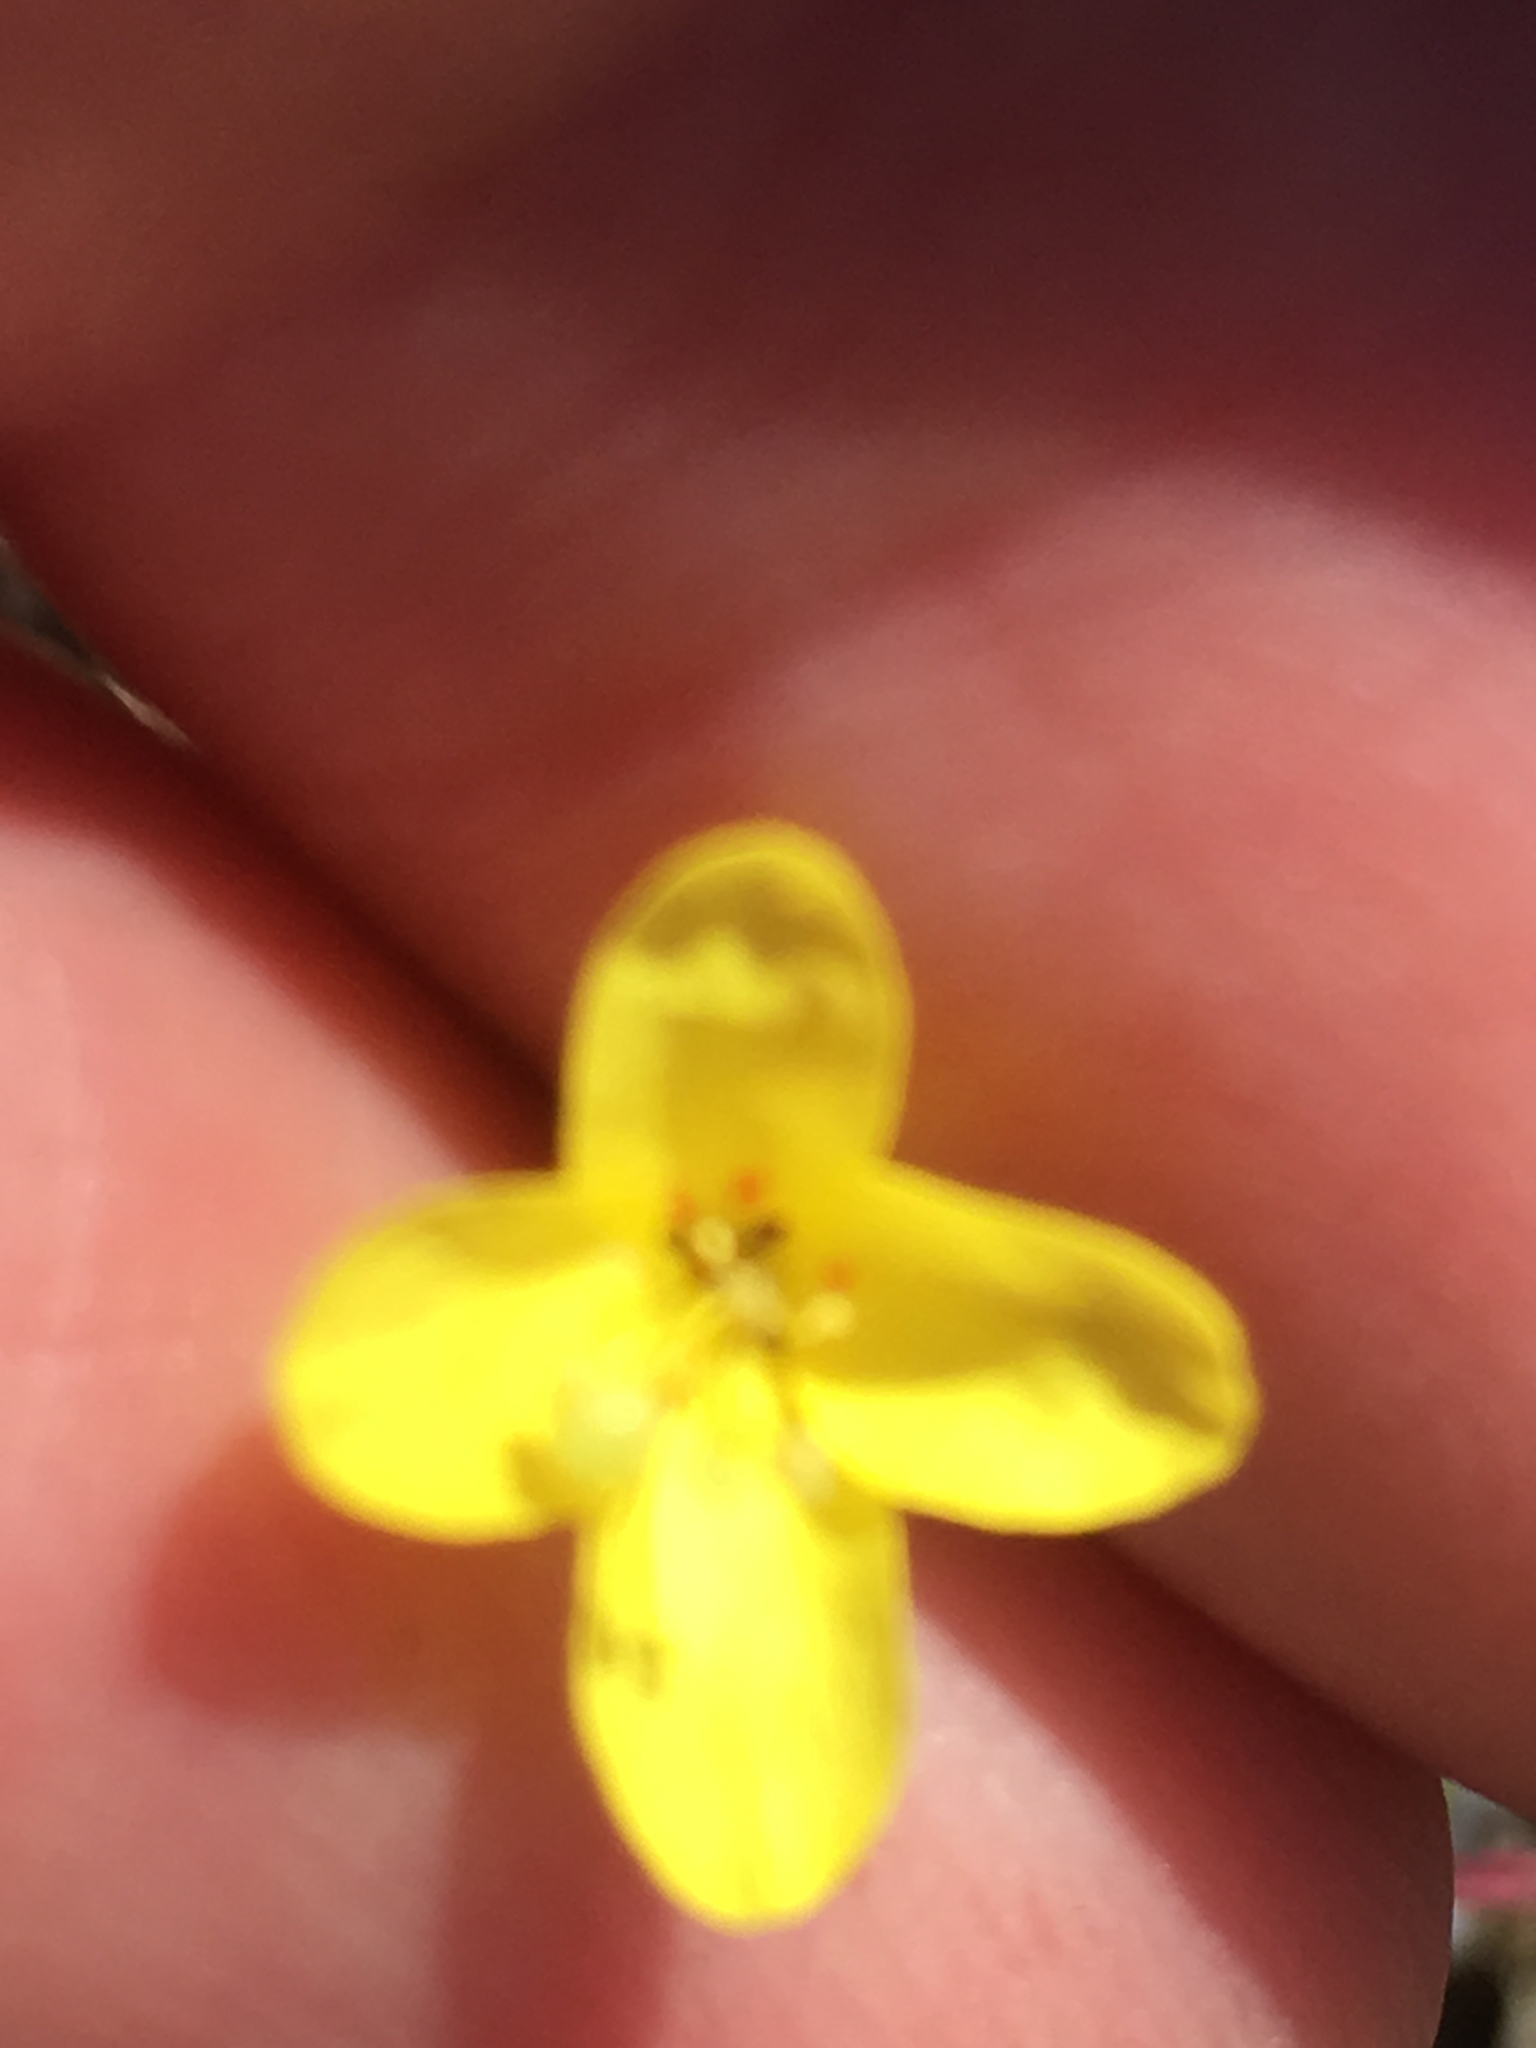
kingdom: Plantae
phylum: Tracheophyta
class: Magnoliopsida
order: Myrtales
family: Onagraceae
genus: Eulobus
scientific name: Eulobus californicus
